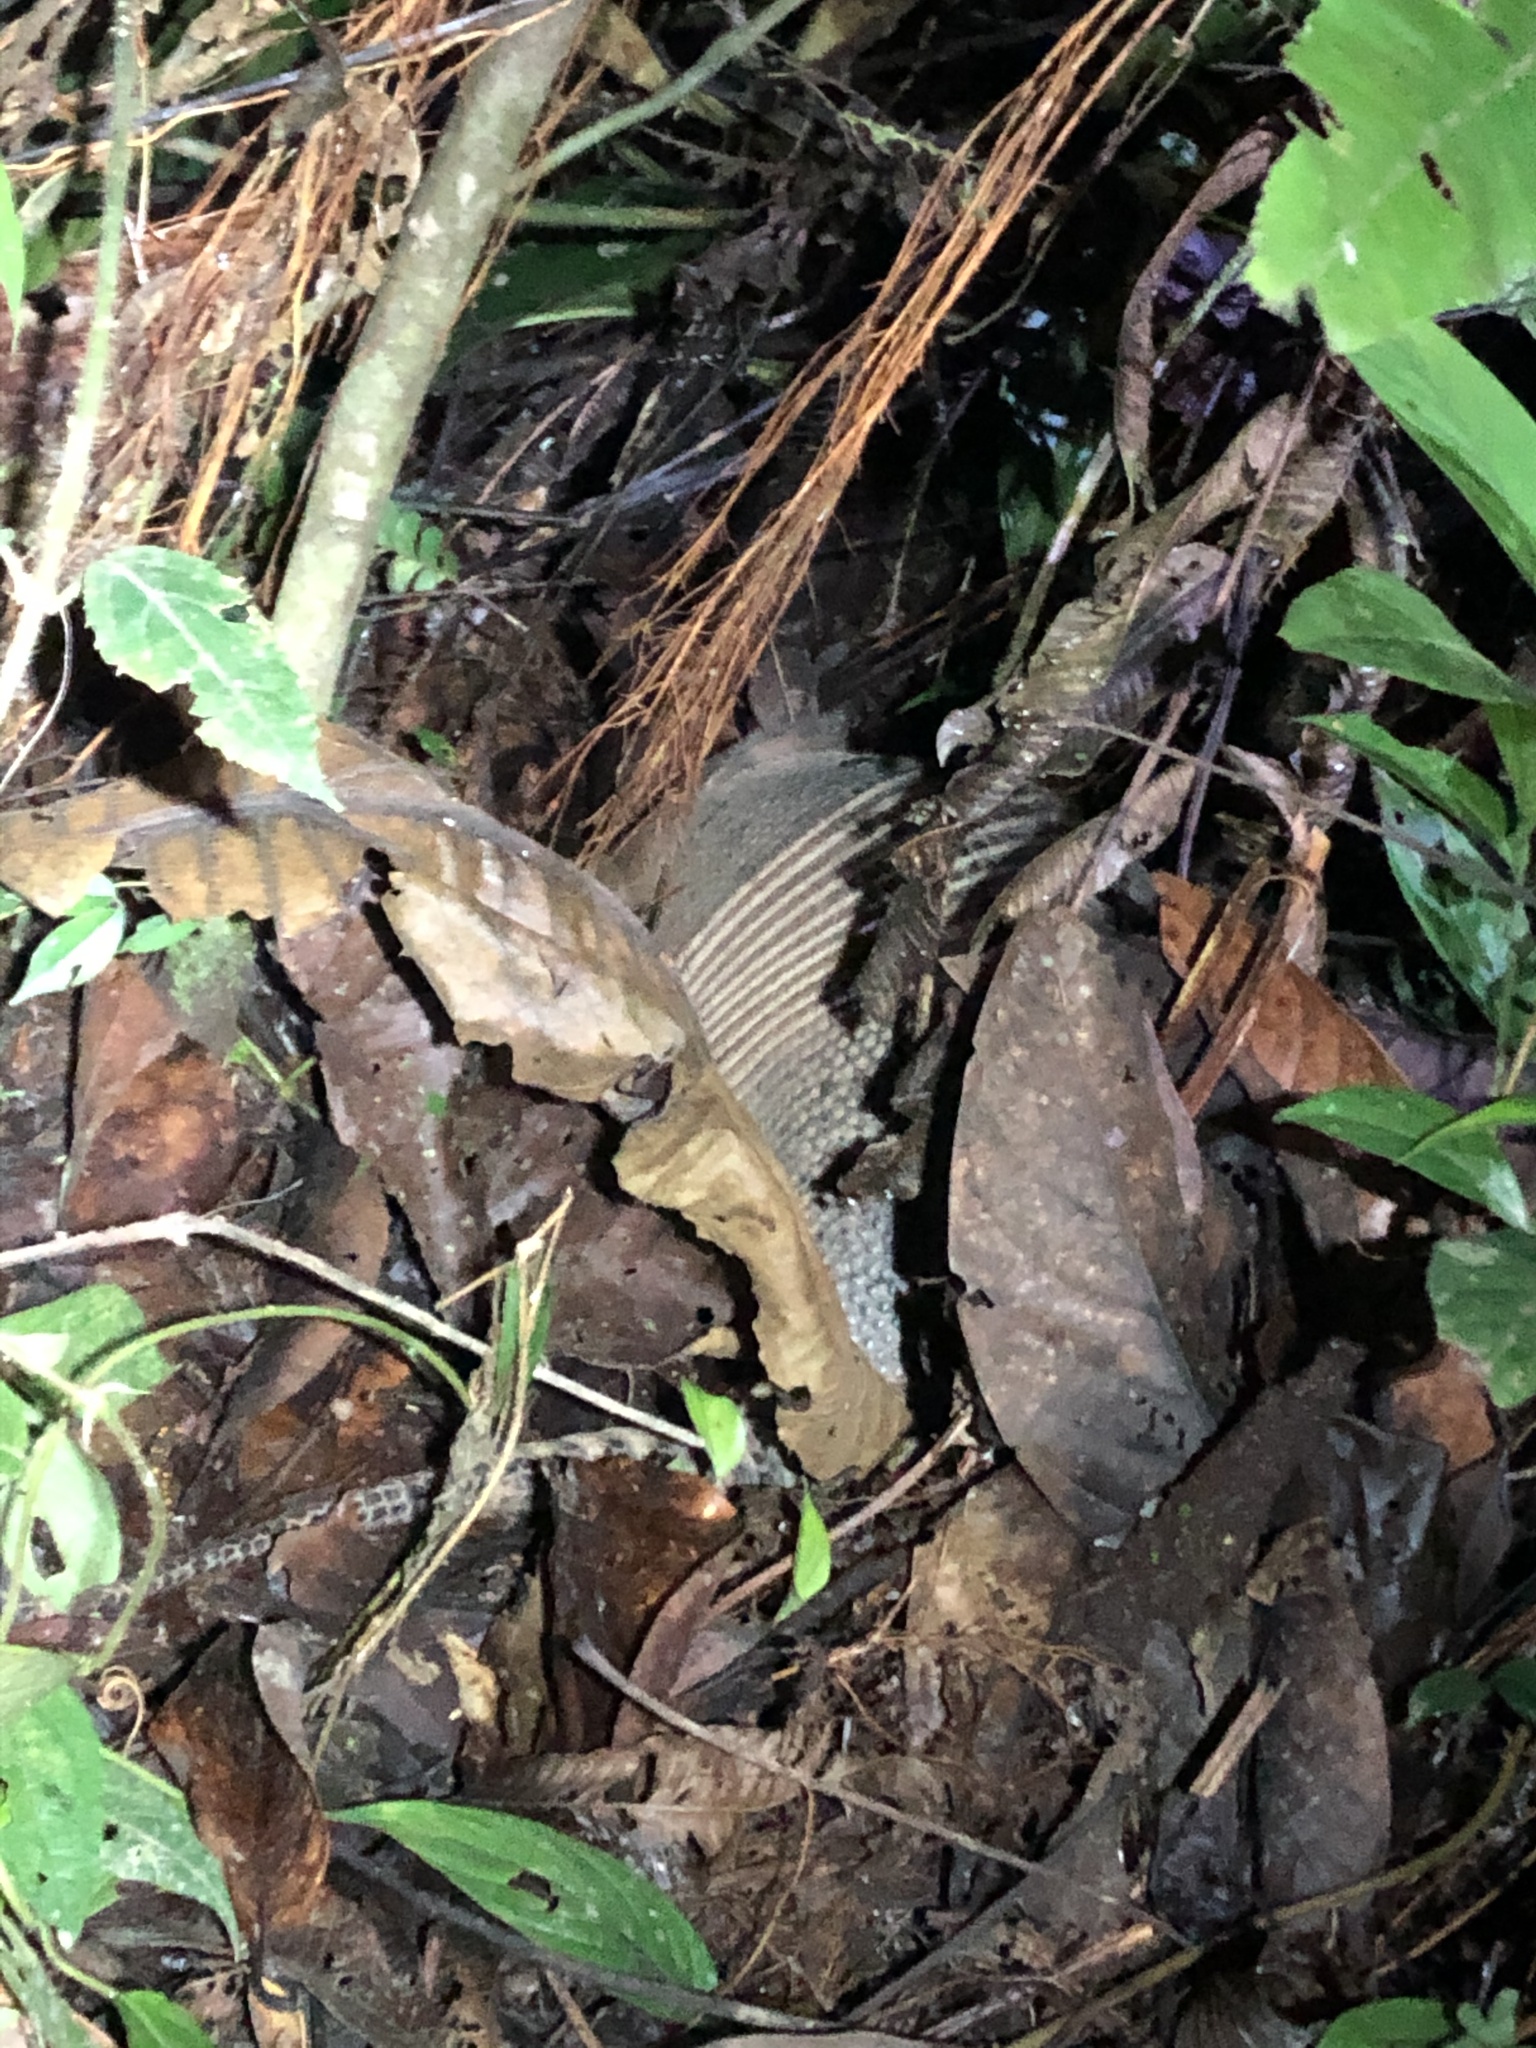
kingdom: Animalia
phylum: Chordata
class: Mammalia
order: Cingulata
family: Dasypodidae
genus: Dasypus
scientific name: Dasypus novemcinctus
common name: Nine-banded armadillo
